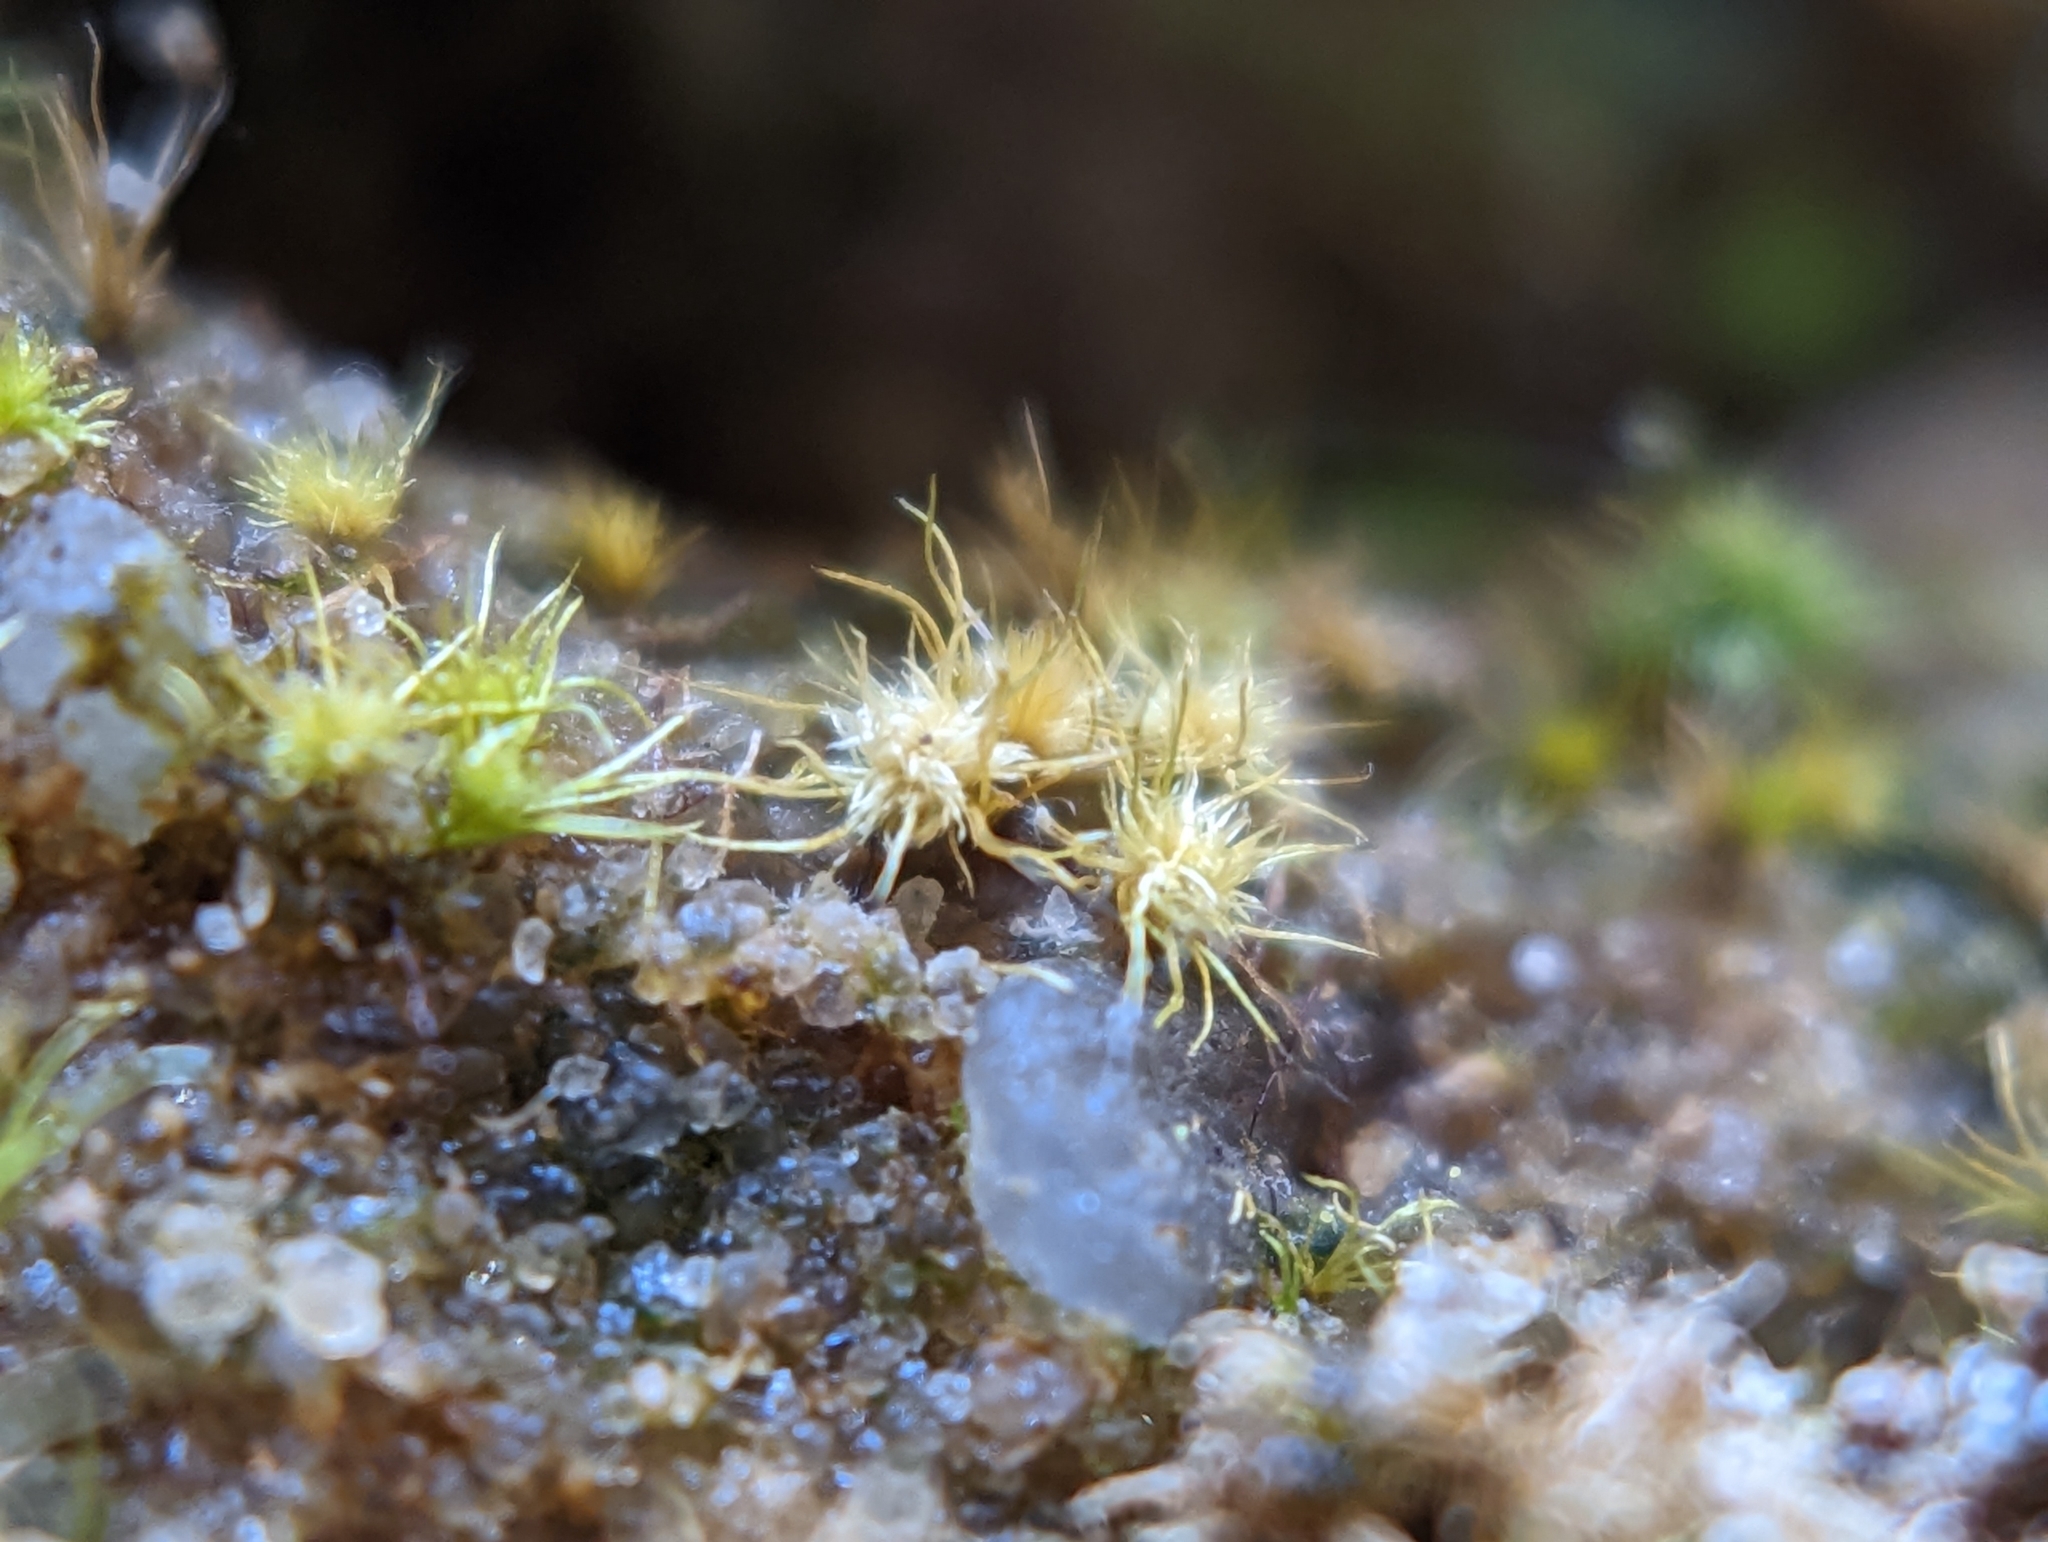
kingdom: Plantae
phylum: Bryophyta
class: Bryopsida
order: Dicranales
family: Leucobryaceae
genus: Brothera
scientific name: Brothera leana
